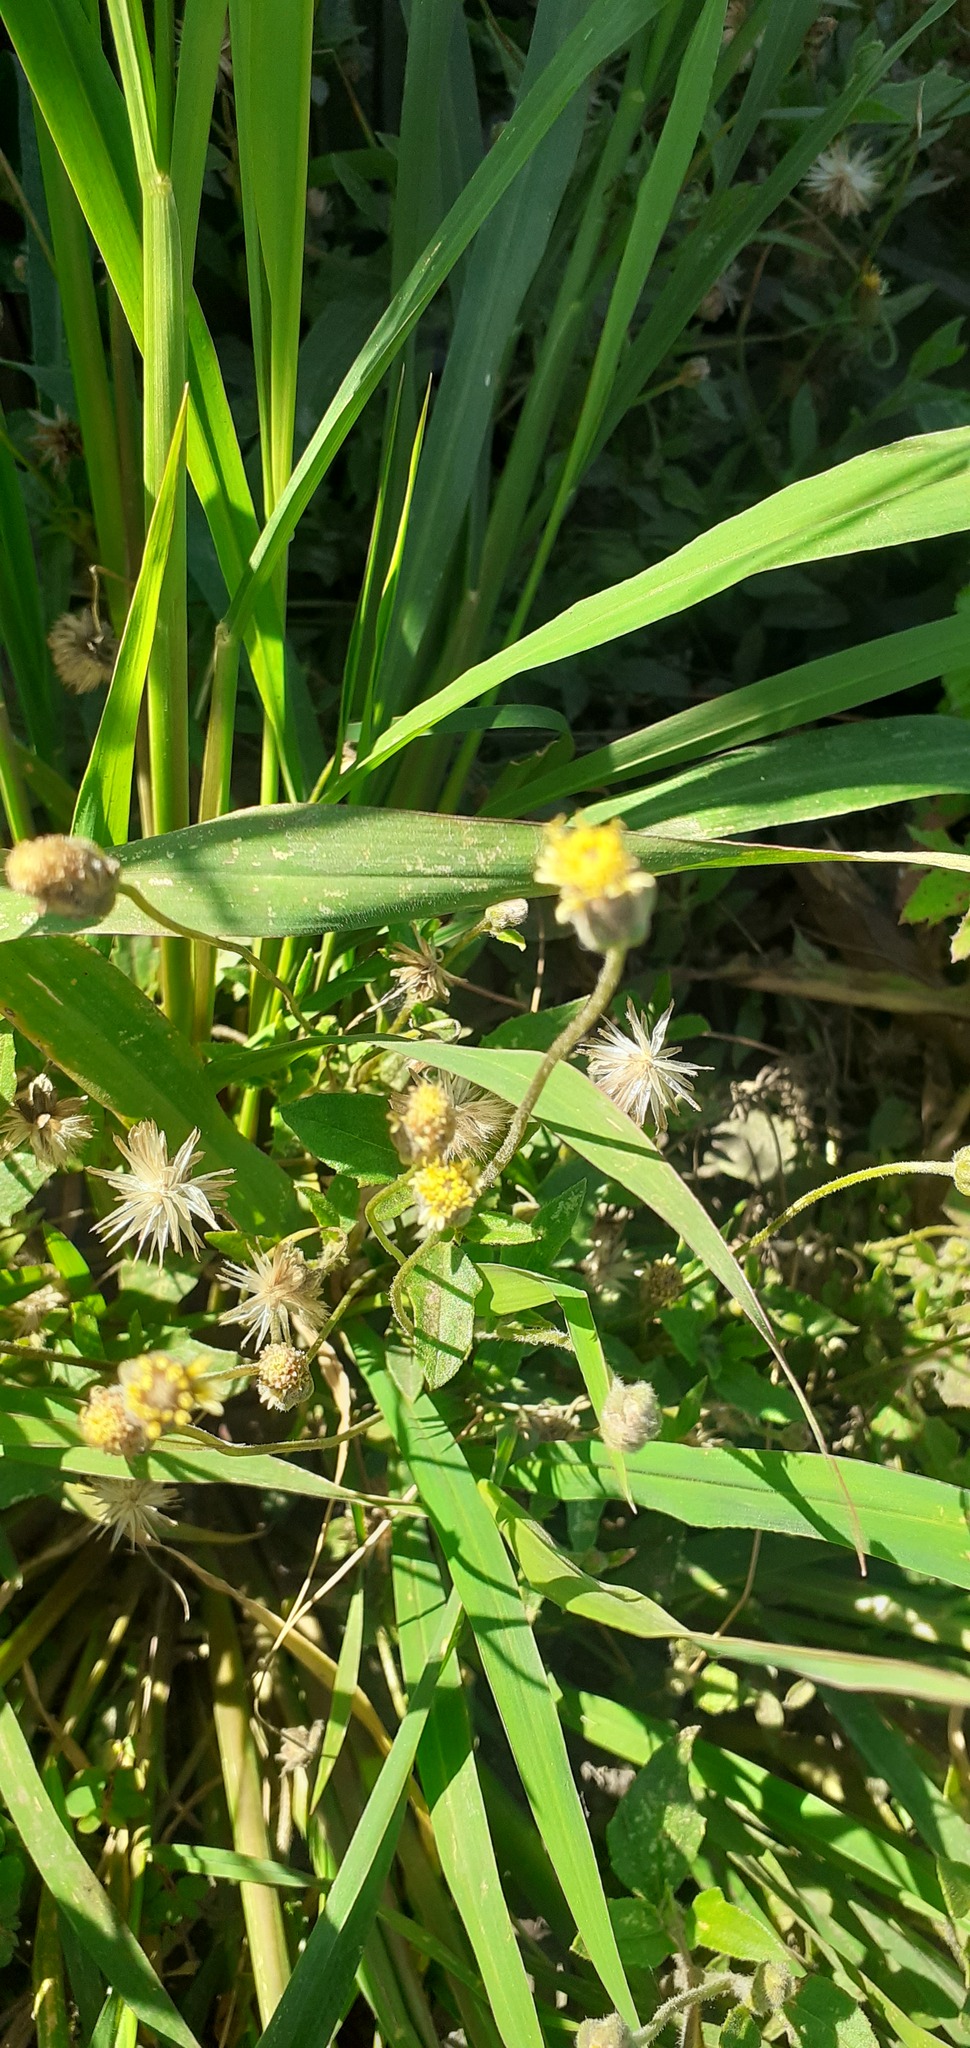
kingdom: Plantae
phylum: Tracheophyta
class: Magnoliopsida
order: Asterales
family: Asteraceae
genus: Tridax
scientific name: Tridax procumbens
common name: Coatbuttons
